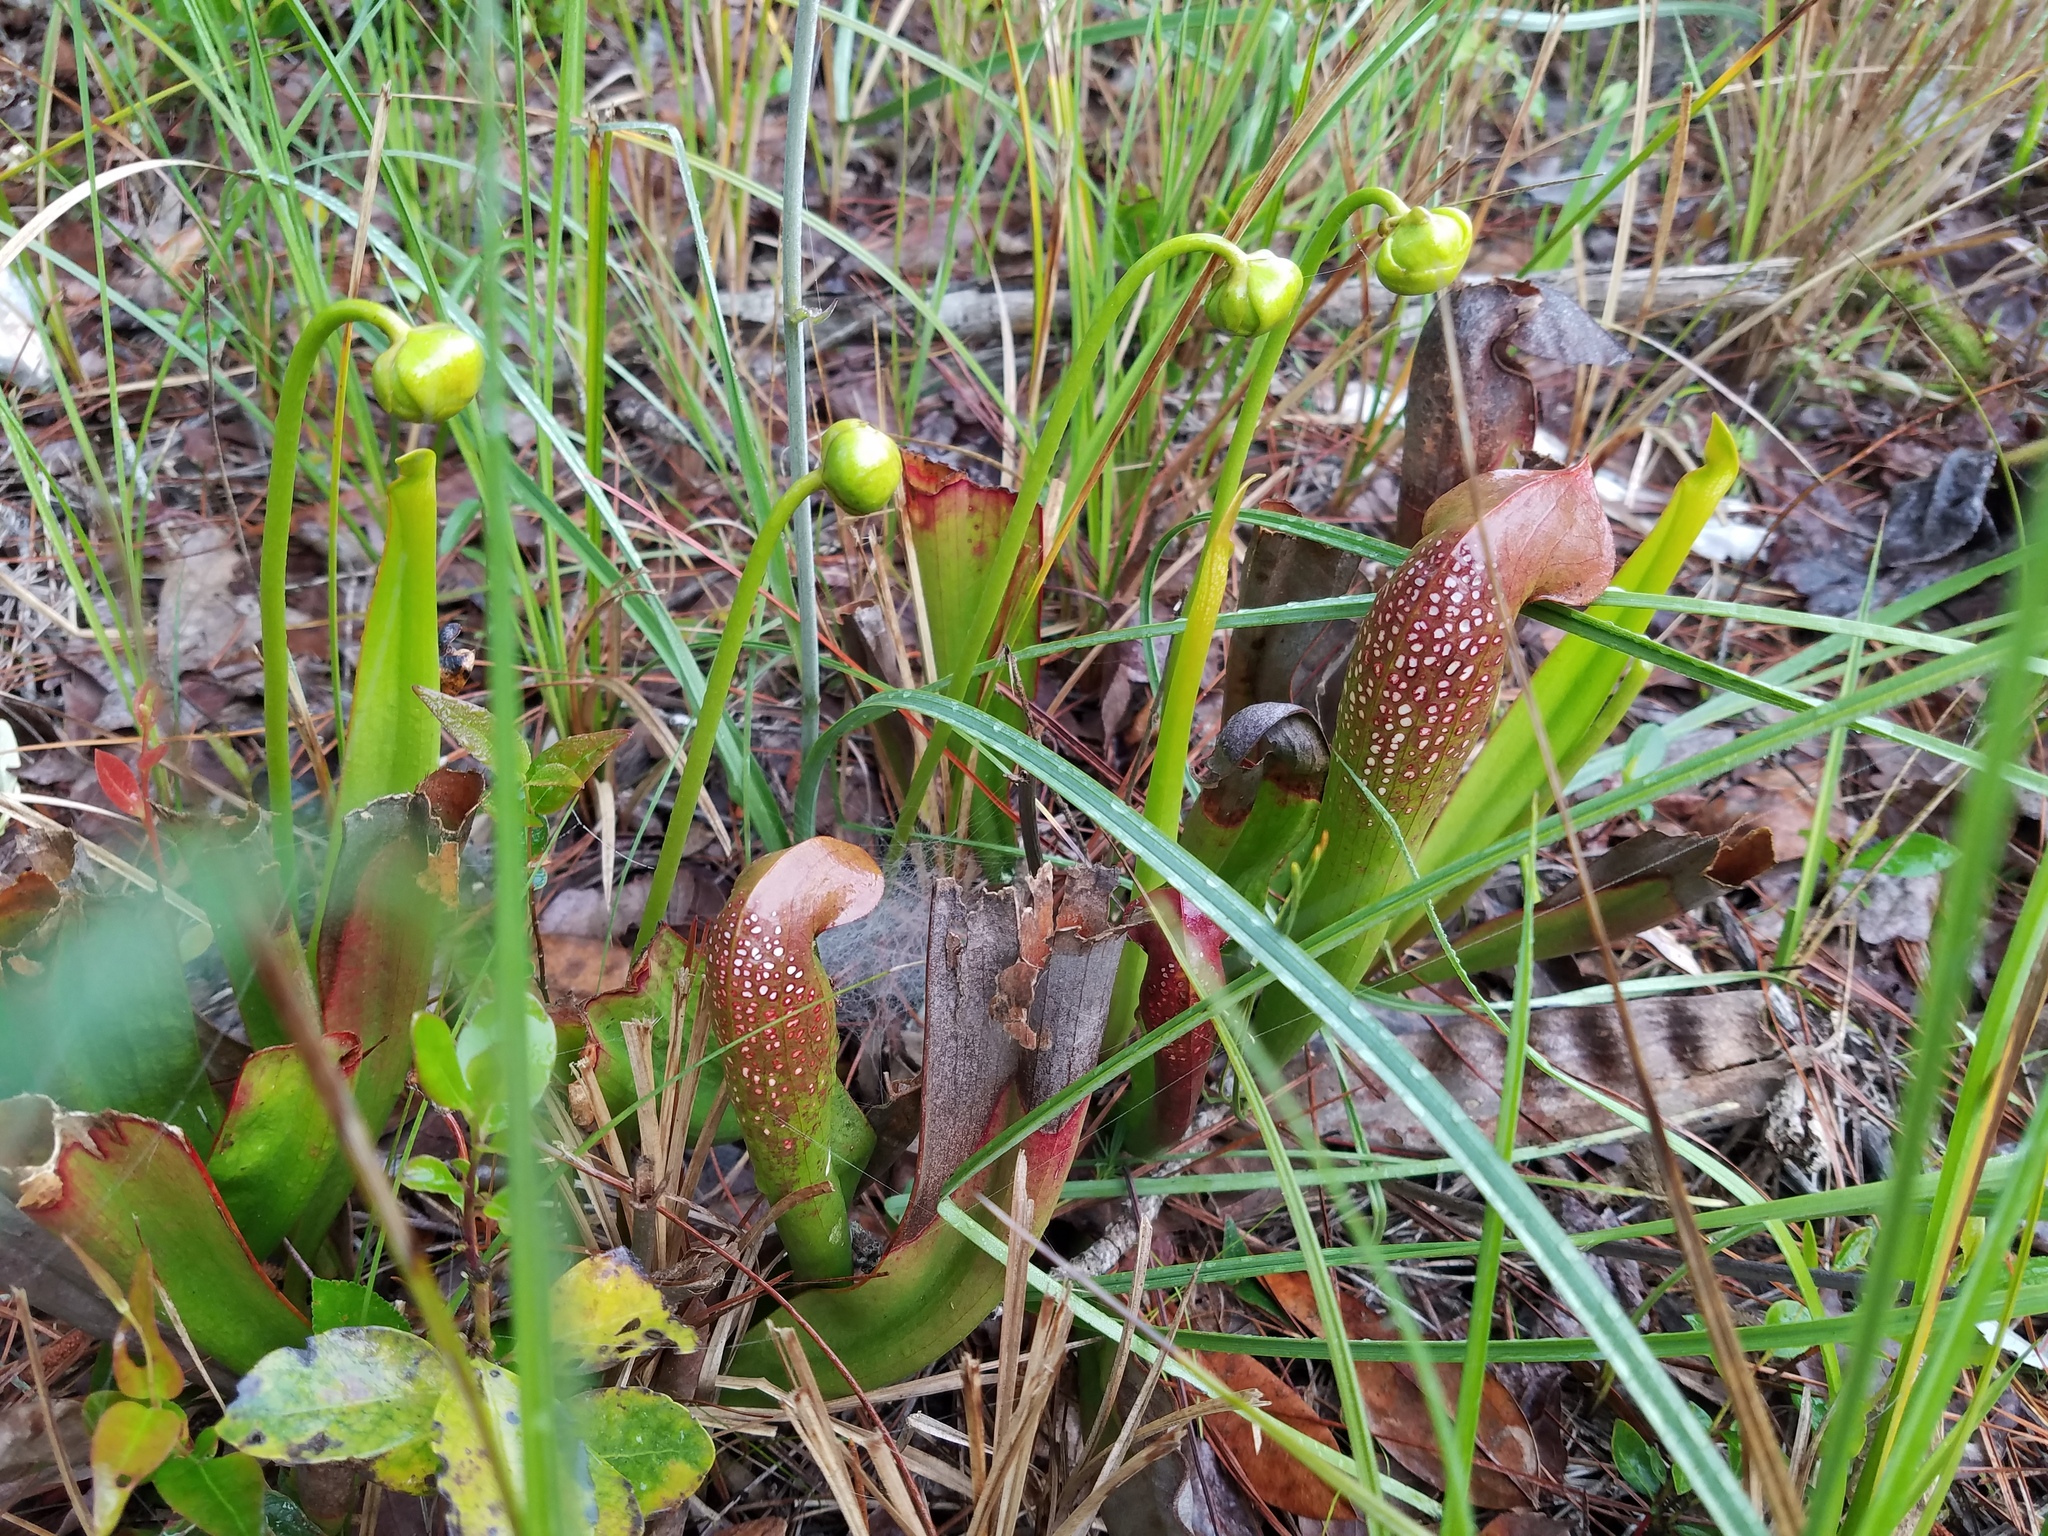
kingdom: Plantae
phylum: Tracheophyta
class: Magnoliopsida
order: Ericales
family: Sarraceniaceae
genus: Sarracenia
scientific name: Sarracenia minor
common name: Rainhat-trumpet
